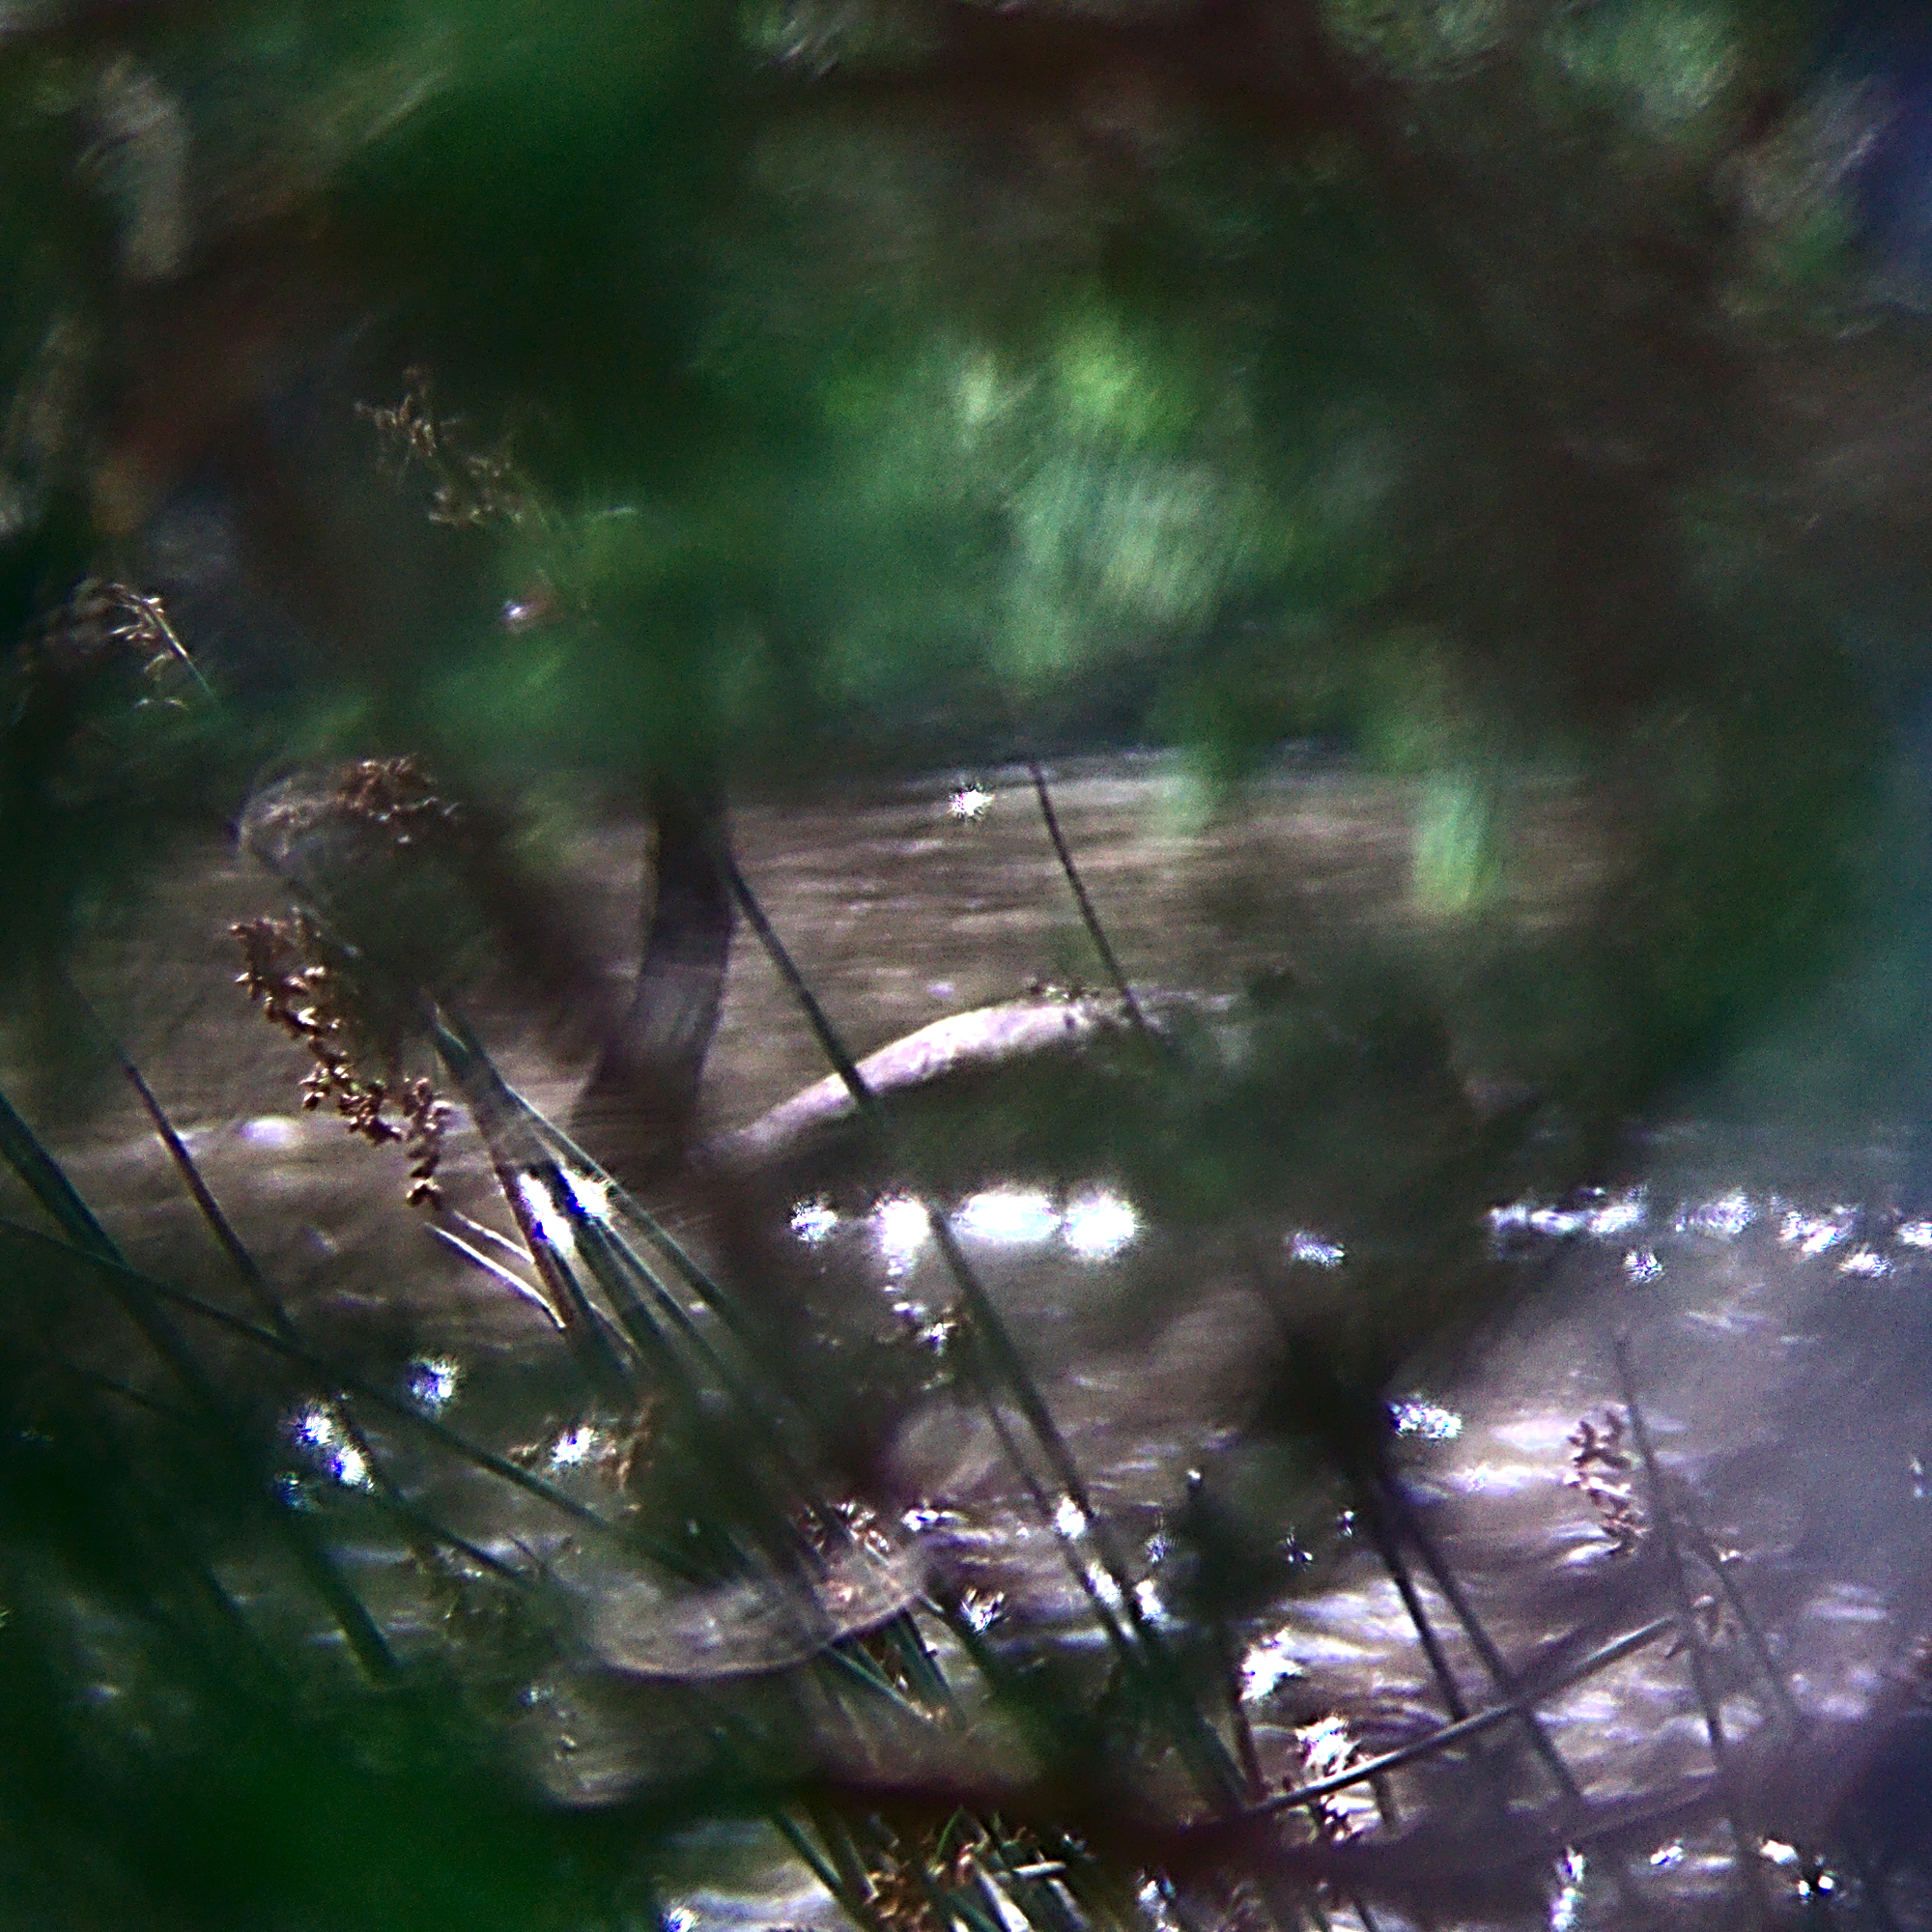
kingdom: Animalia
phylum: Chordata
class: Aves
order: Anseriformes
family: Anatidae
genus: Cygnus
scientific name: Cygnus atratus
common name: Black swan
